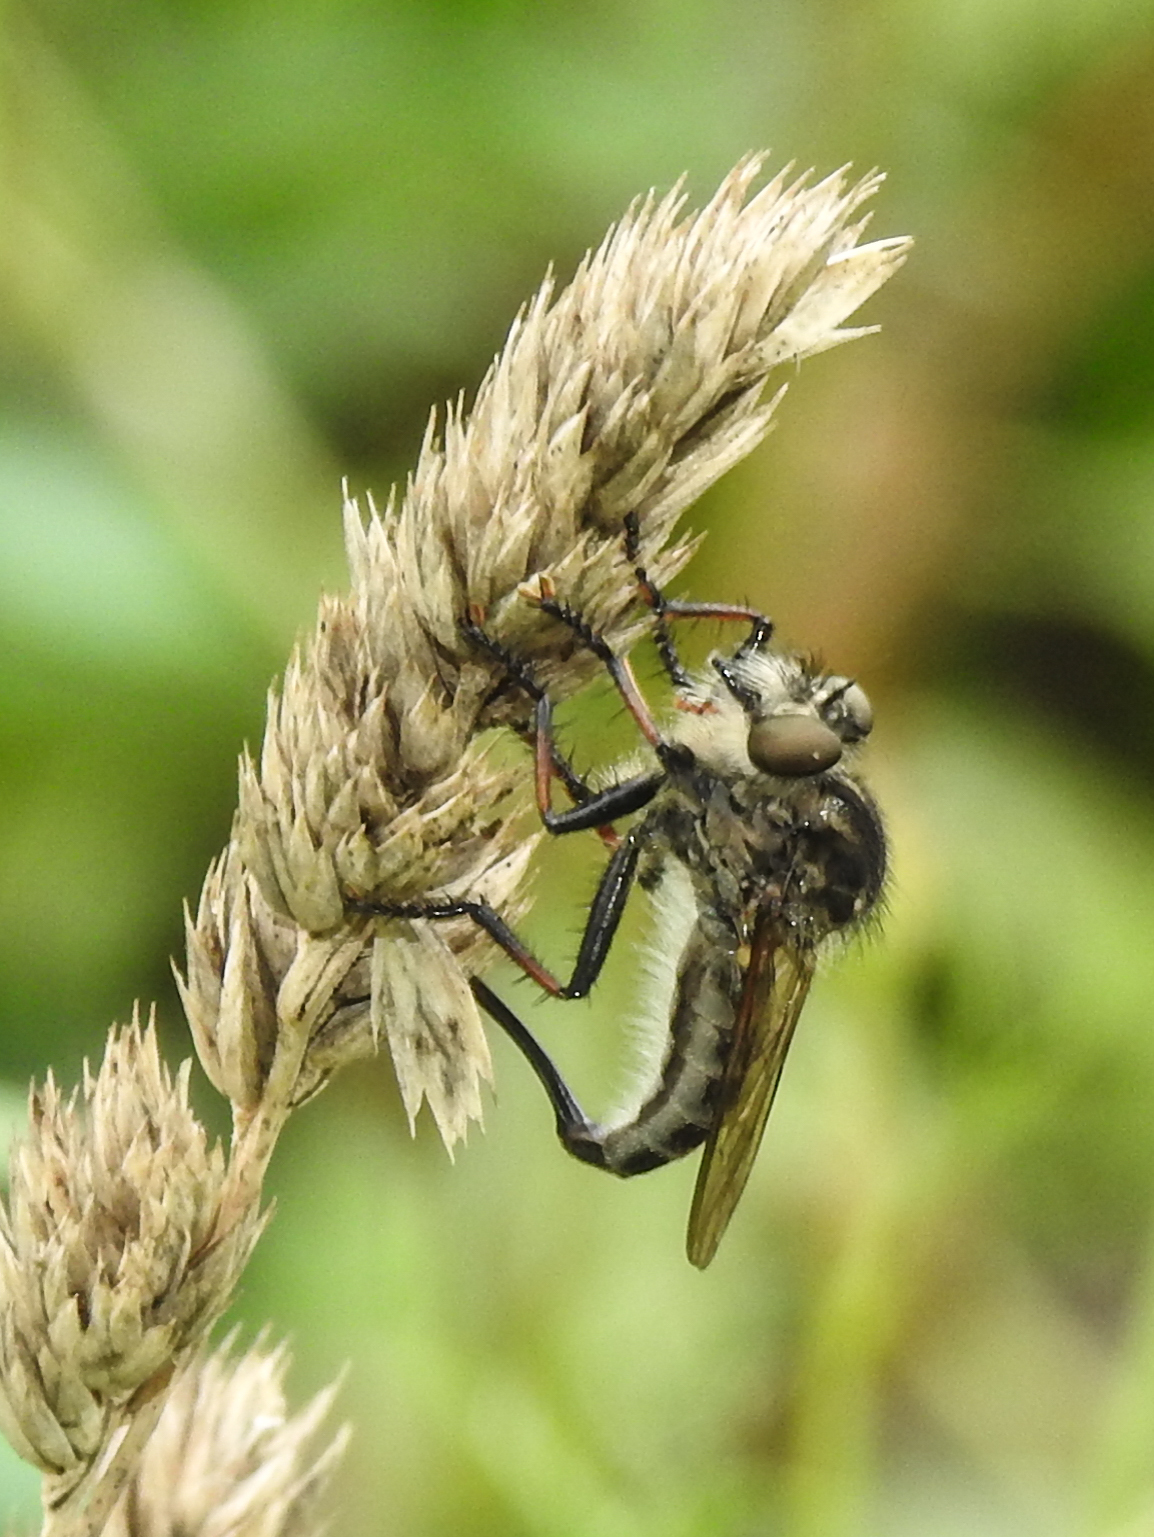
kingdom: Animalia
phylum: Arthropoda
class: Insecta
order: Diptera
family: Asilidae
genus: Efferia
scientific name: Efferia aestuans
